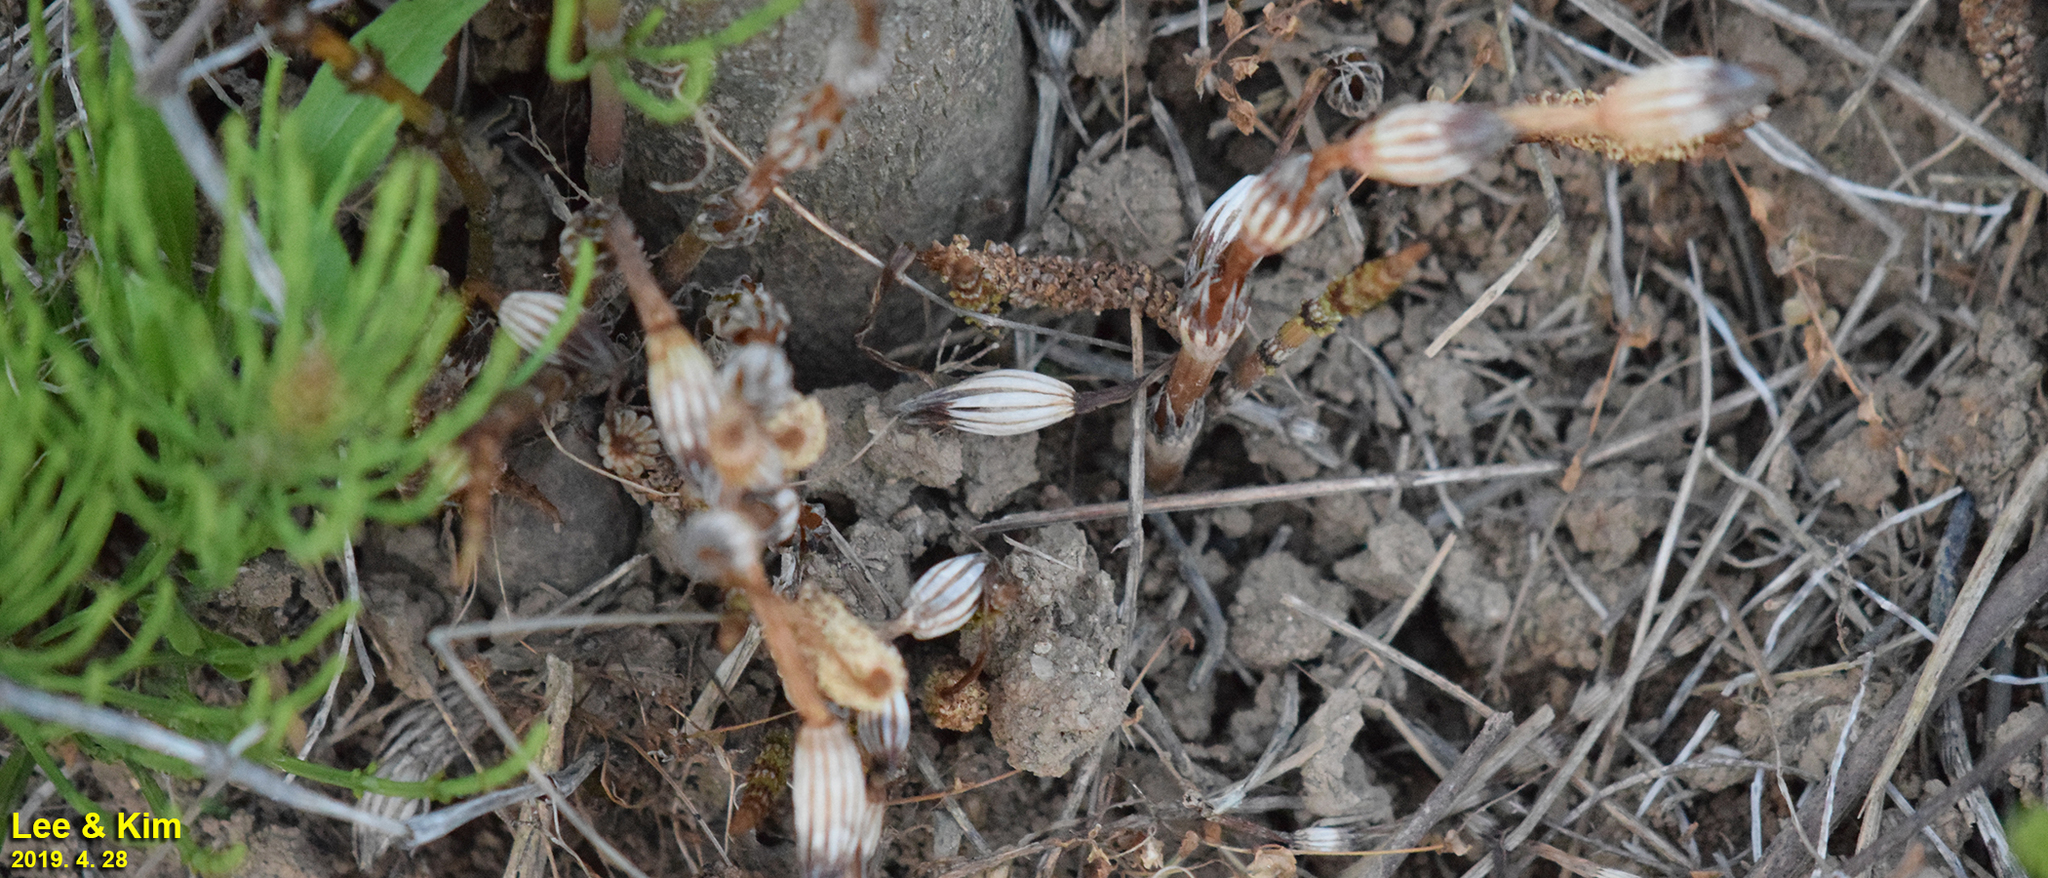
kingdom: Plantae
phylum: Tracheophyta
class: Polypodiopsida
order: Equisetales
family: Equisetaceae
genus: Equisetum
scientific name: Equisetum arvense
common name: Field horsetail
